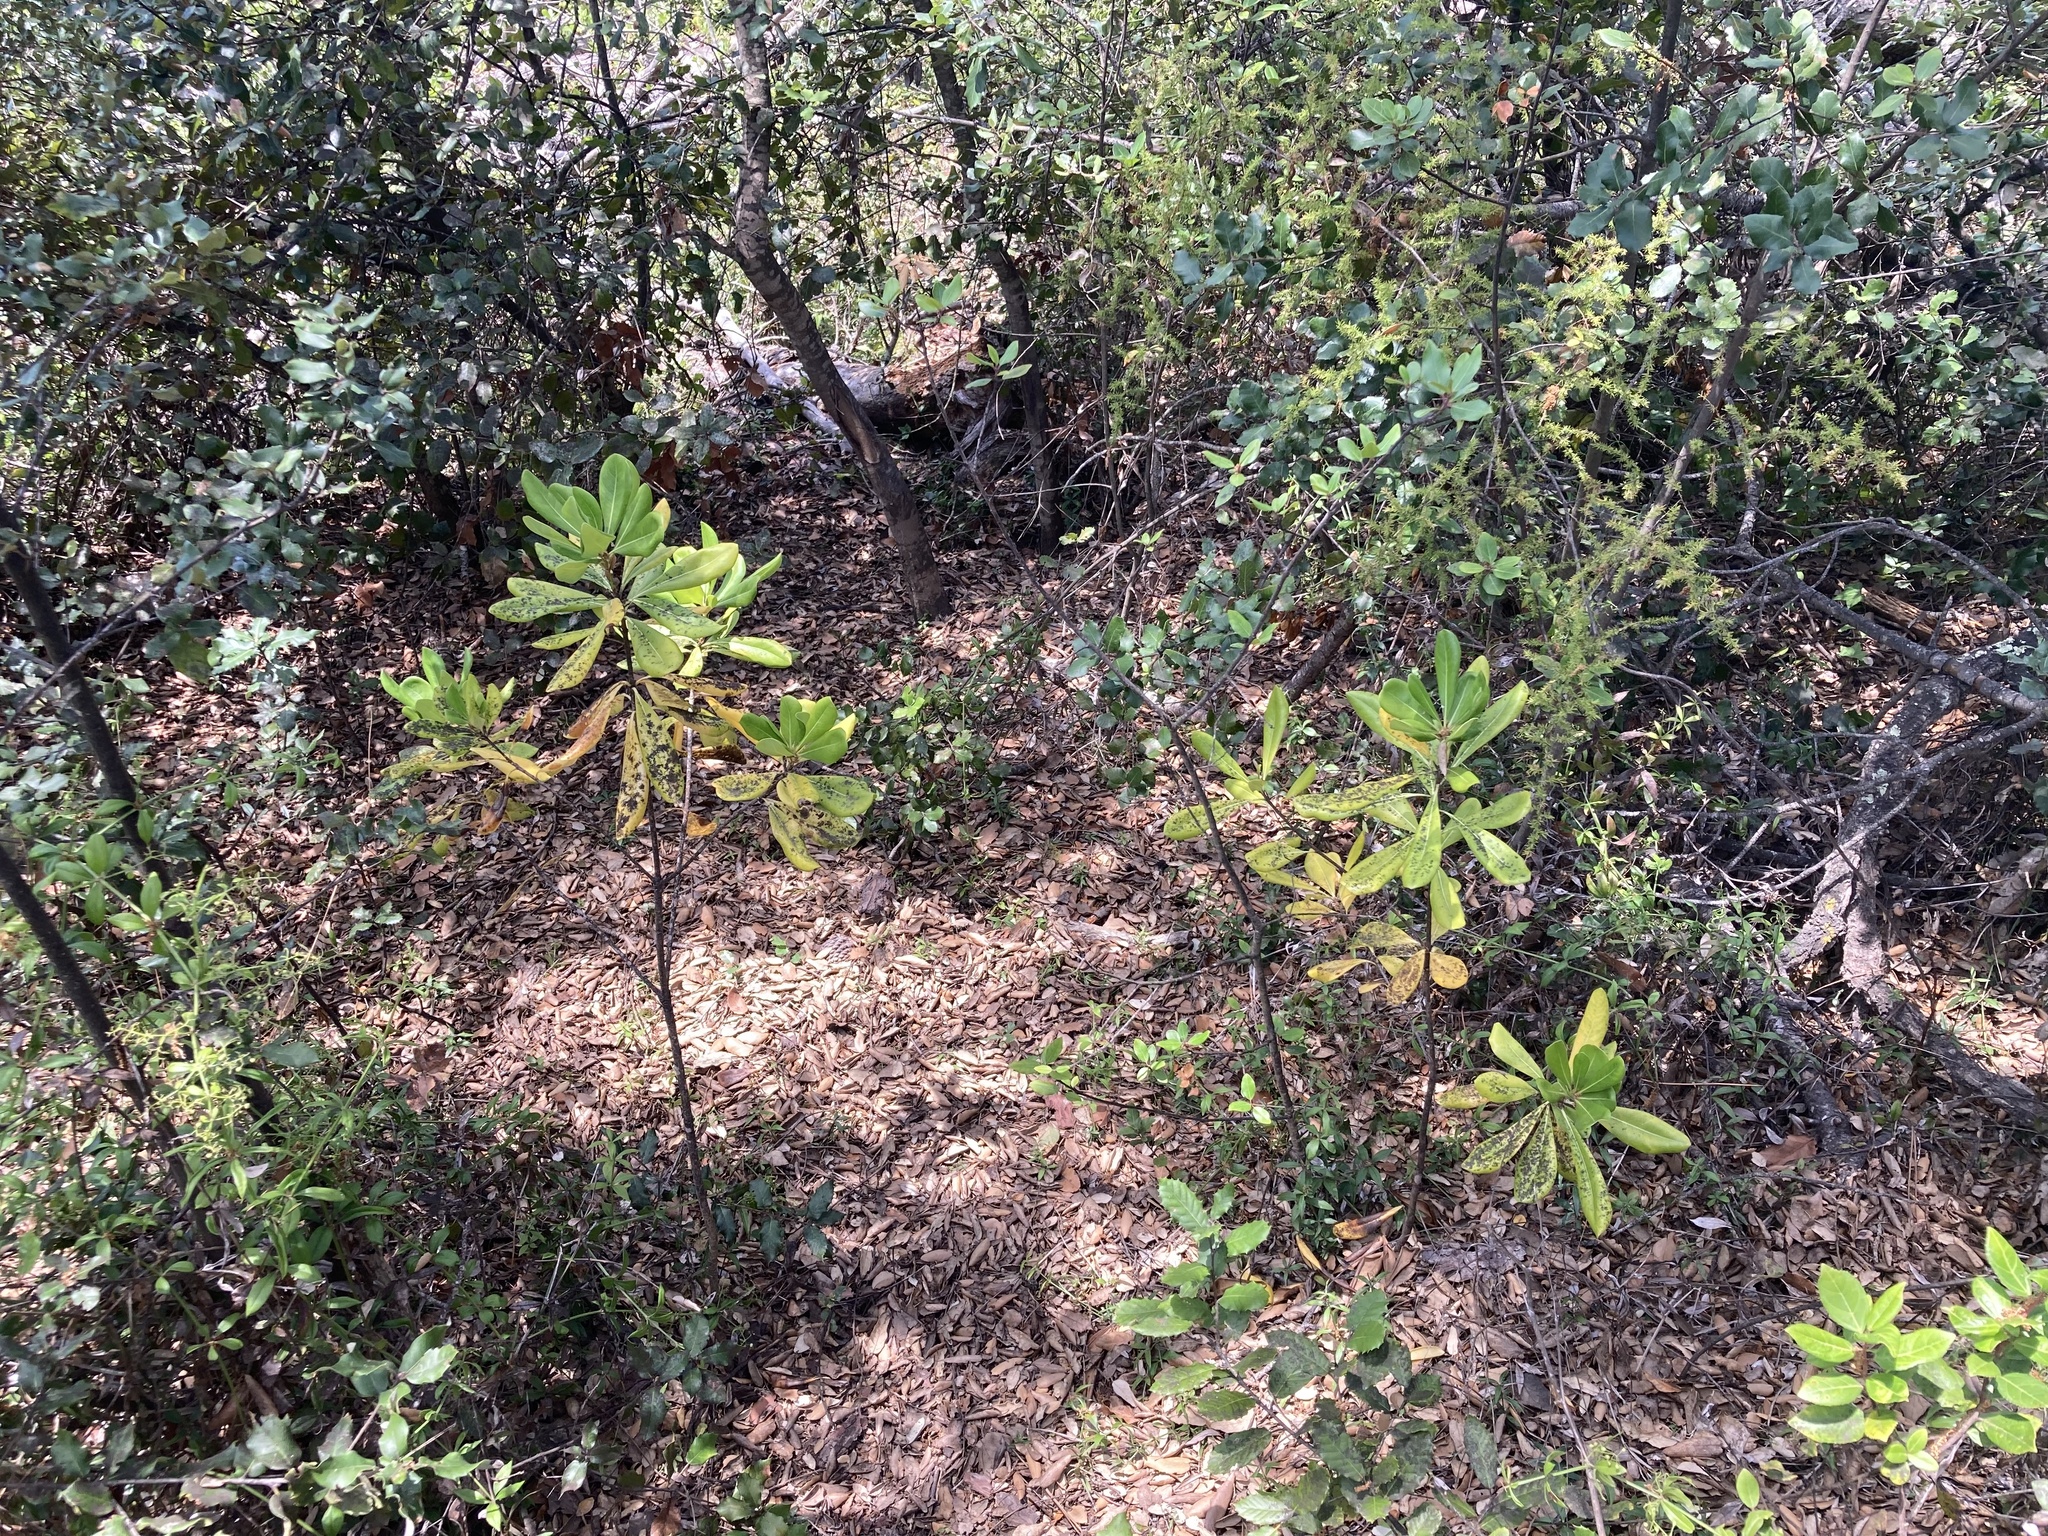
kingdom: Plantae
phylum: Tracheophyta
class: Magnoliopsida
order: Apiales
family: Pittosporaceae
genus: Pittosporum
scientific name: Pittosporum tobira
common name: Japanese cheesewood
